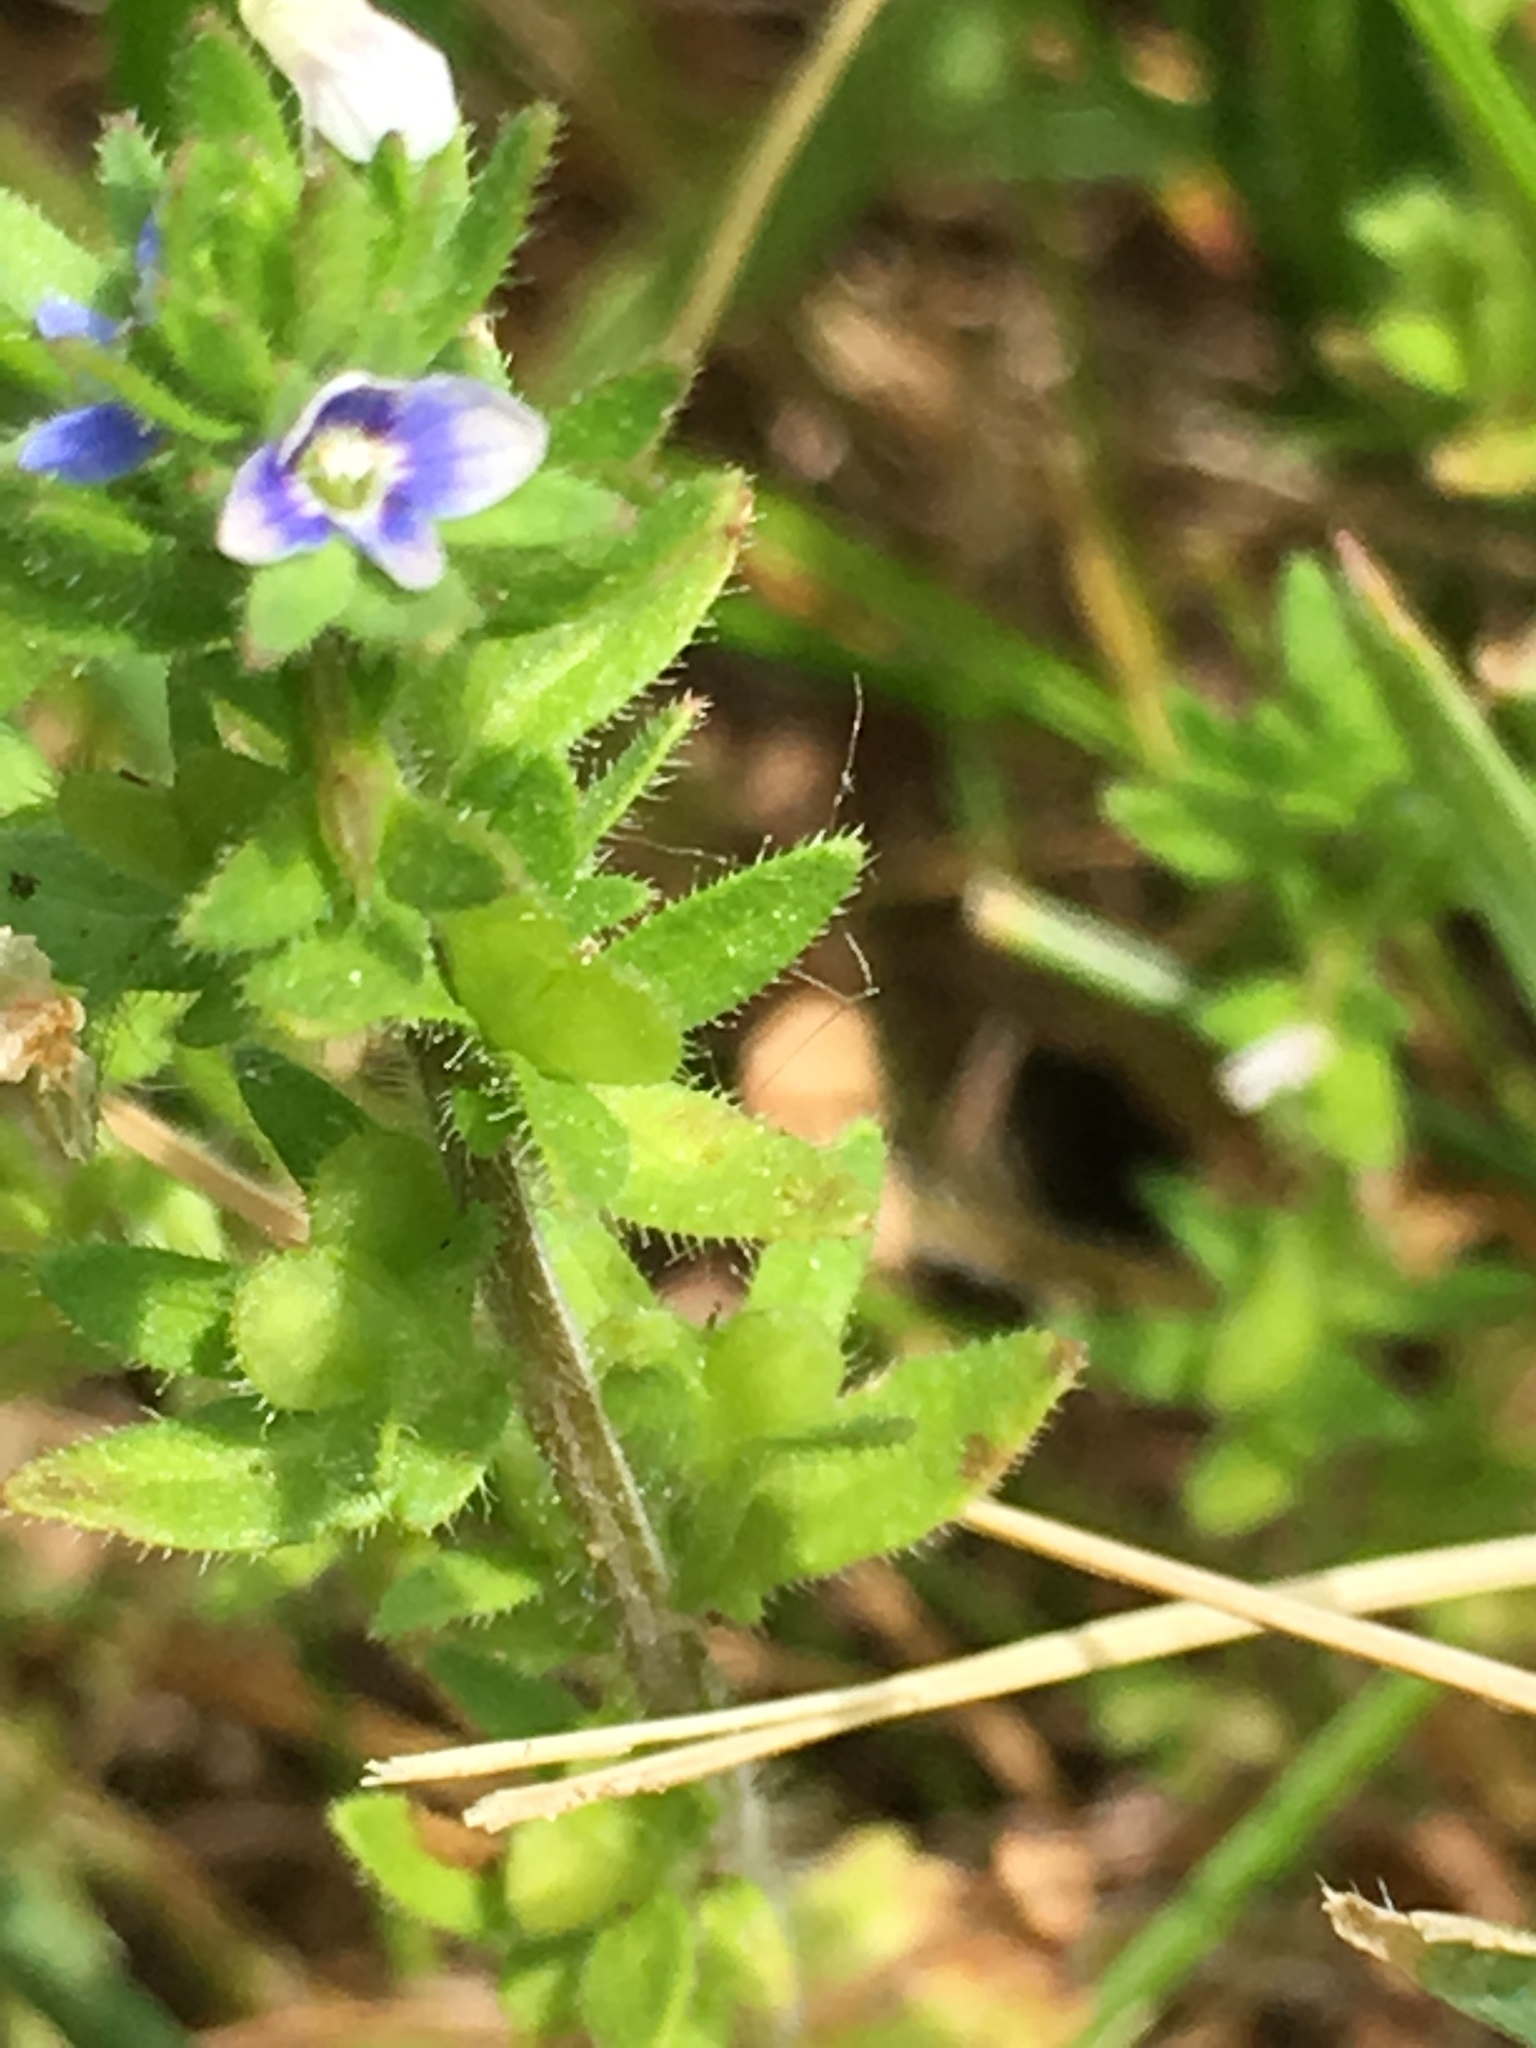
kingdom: Plantae
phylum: Tracheophyta
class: Magnoliopsida
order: Lamiales
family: Plantaginaceae
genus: Veronica
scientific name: Veronica arvensis
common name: Corn speedwell
